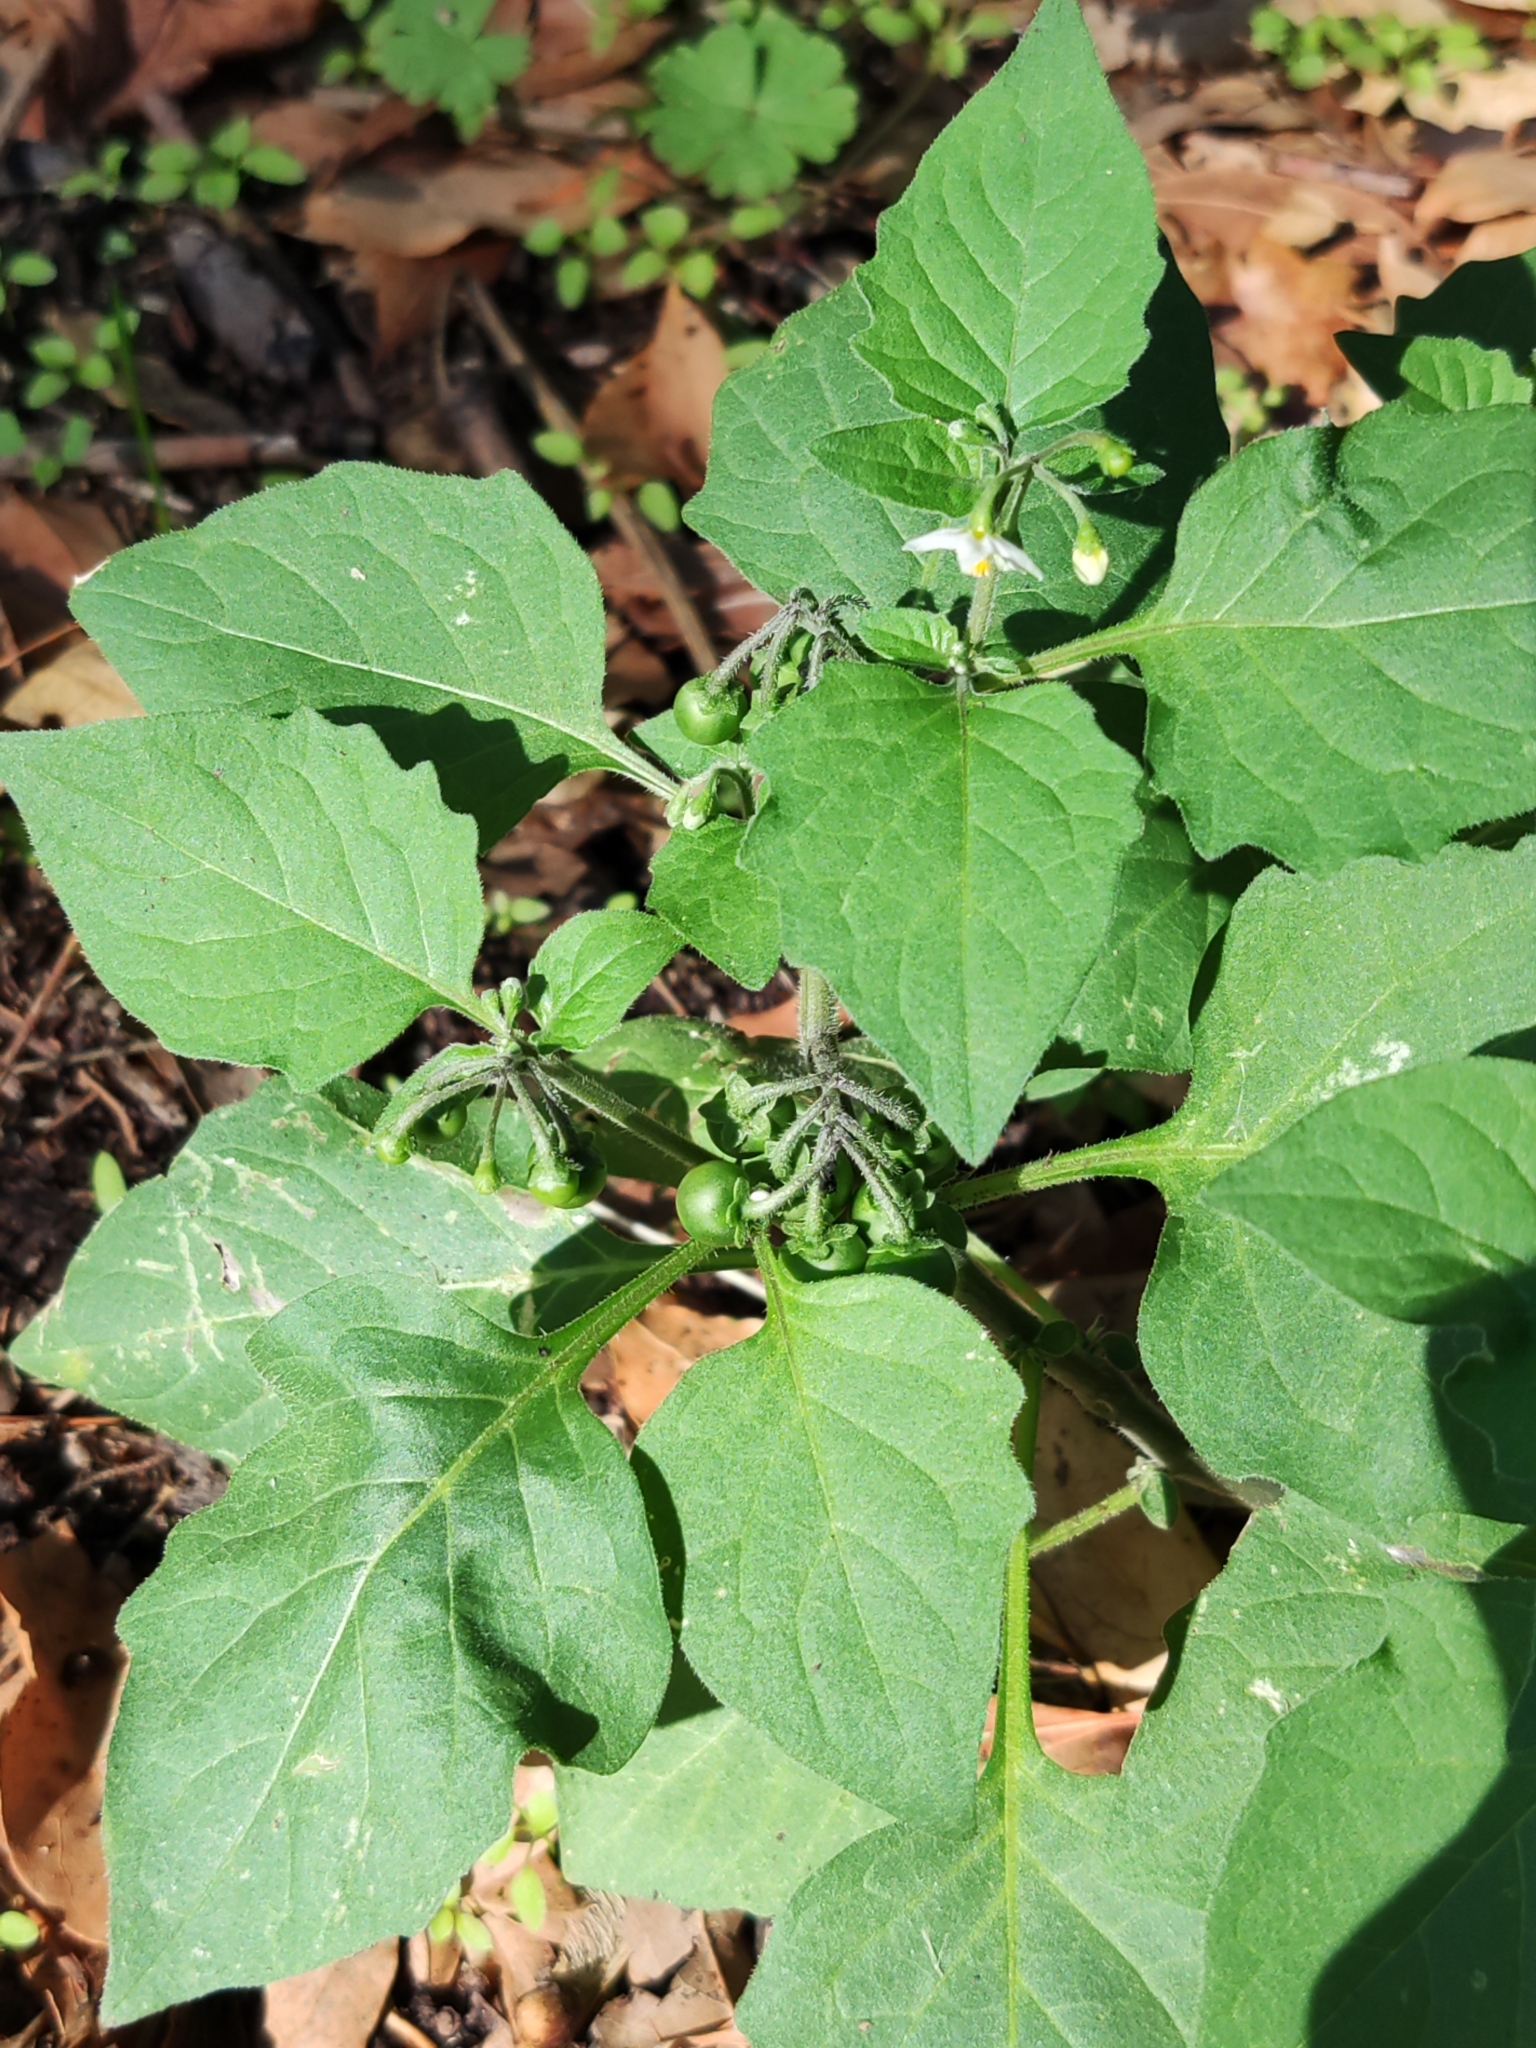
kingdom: Plantae
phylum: Tracheophyta
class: Magnoliopsida
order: Solanales
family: Solanaceae
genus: Solanum
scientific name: Solanum nigrum
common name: Black nightshade
